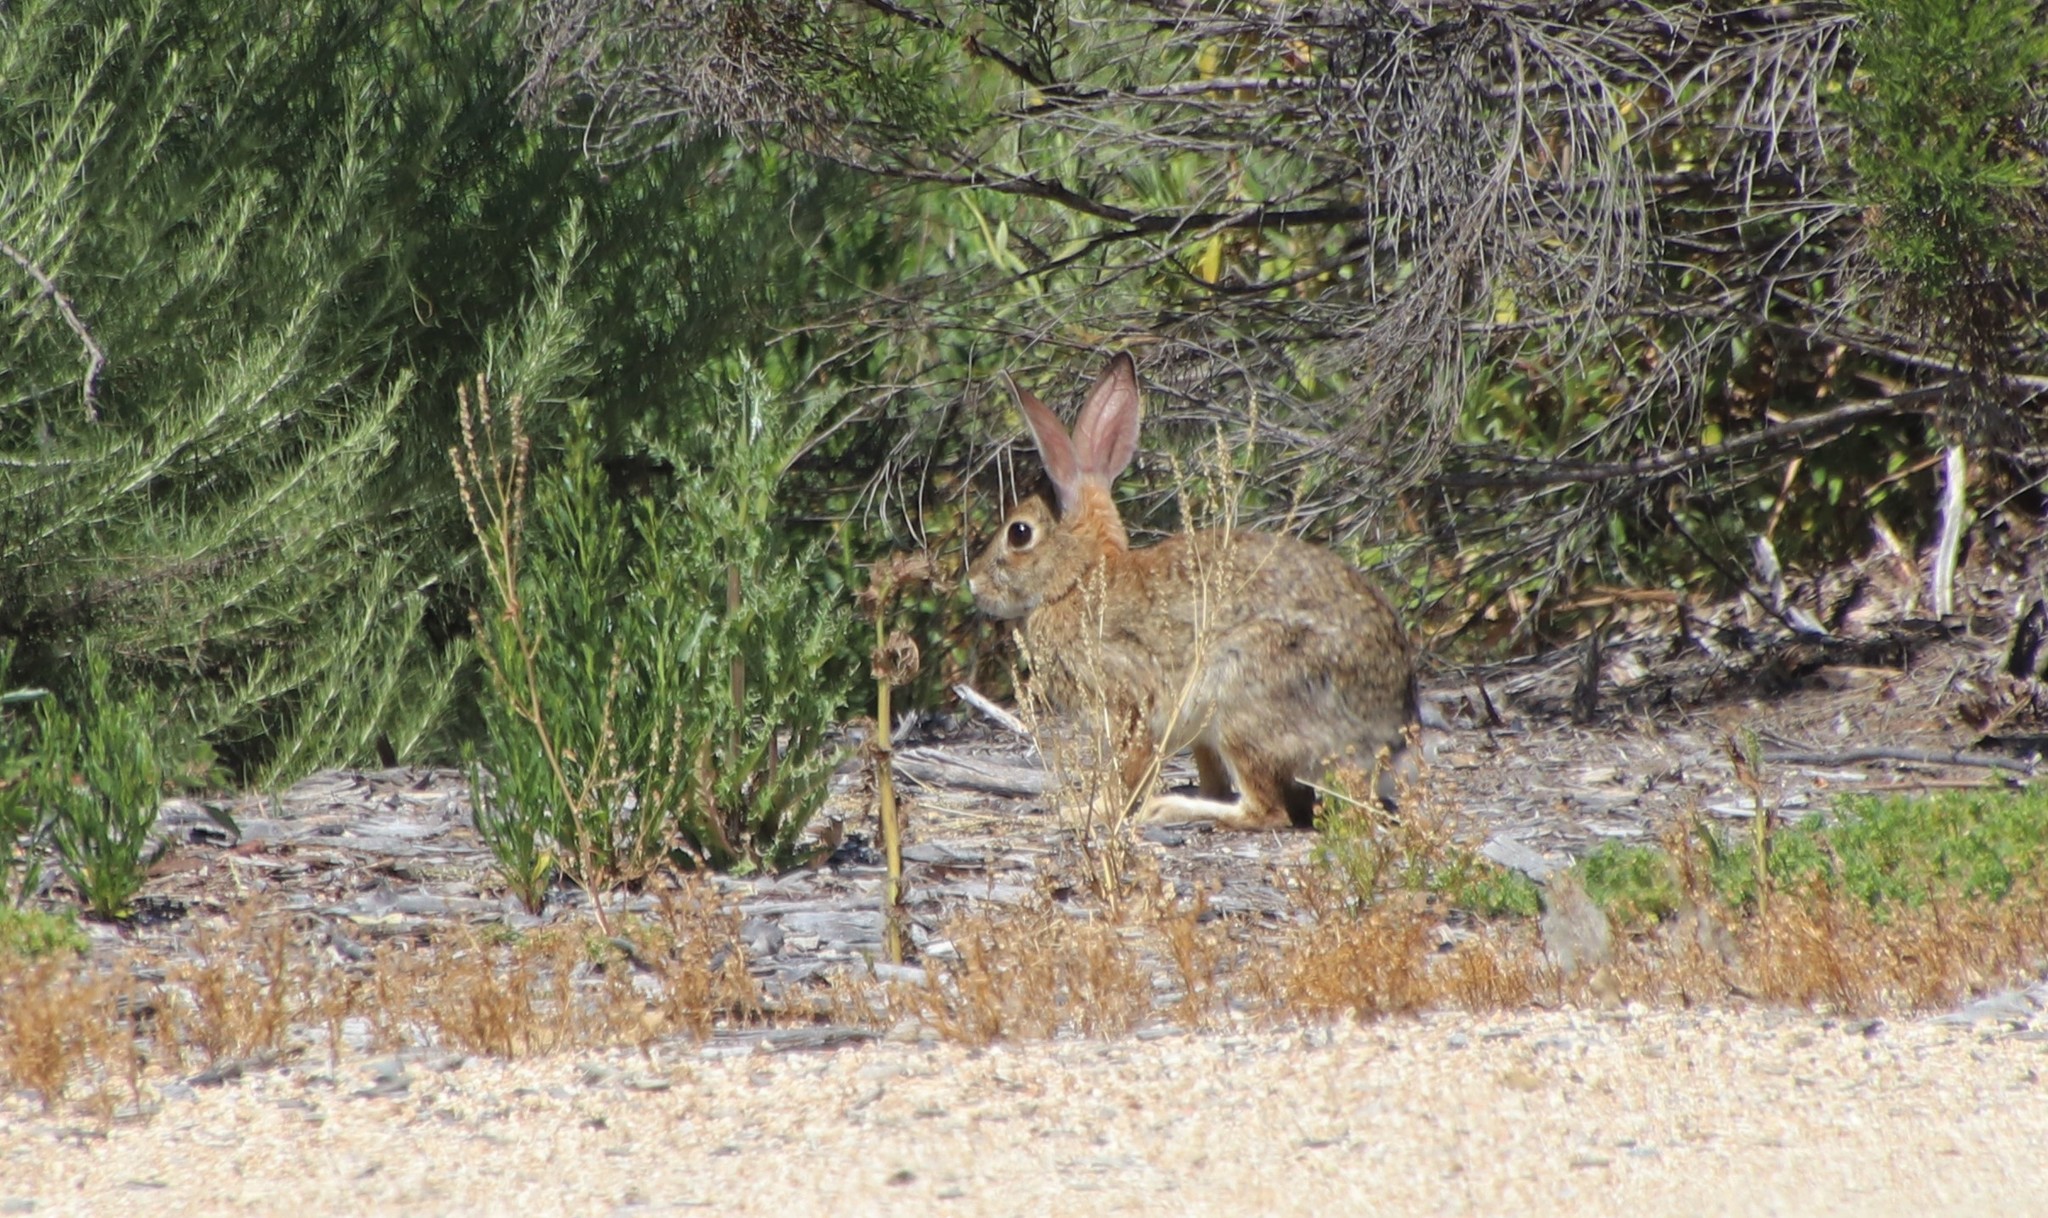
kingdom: Animalia
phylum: Chordata
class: Mammalia
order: Lagomorpha
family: Leporidae
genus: Sylvilagus
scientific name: Sylvilagus audubonii
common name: Desert cottontail
